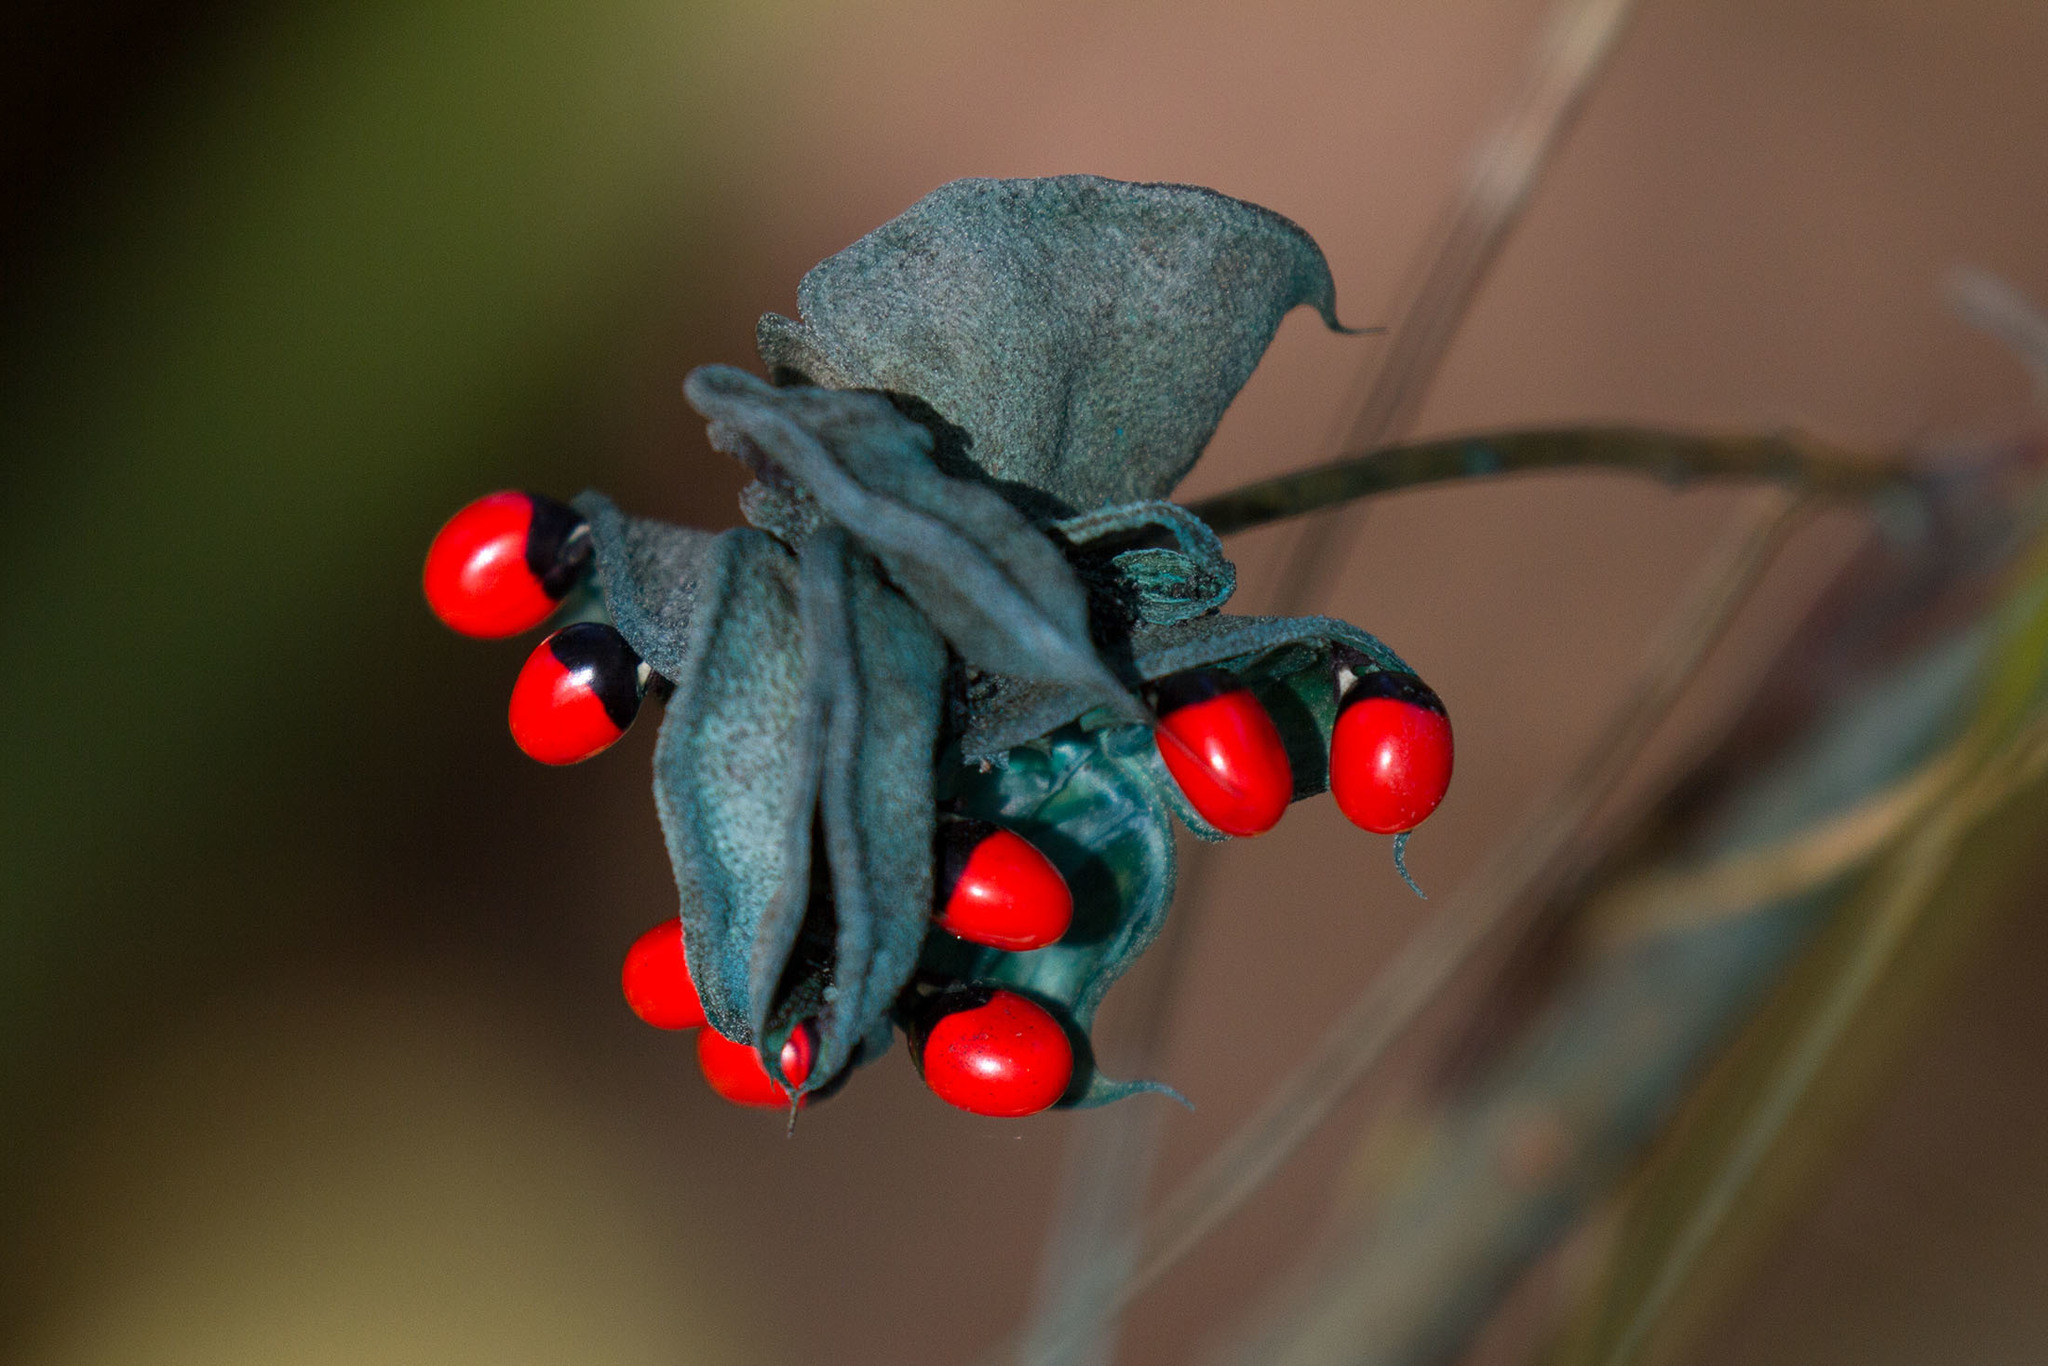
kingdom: Plantae
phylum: Tracheophyta
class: Magnoliopsida
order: Fabales
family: Fabaceae
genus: Abrus
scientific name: Abrus precatorius
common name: Rosarypea
